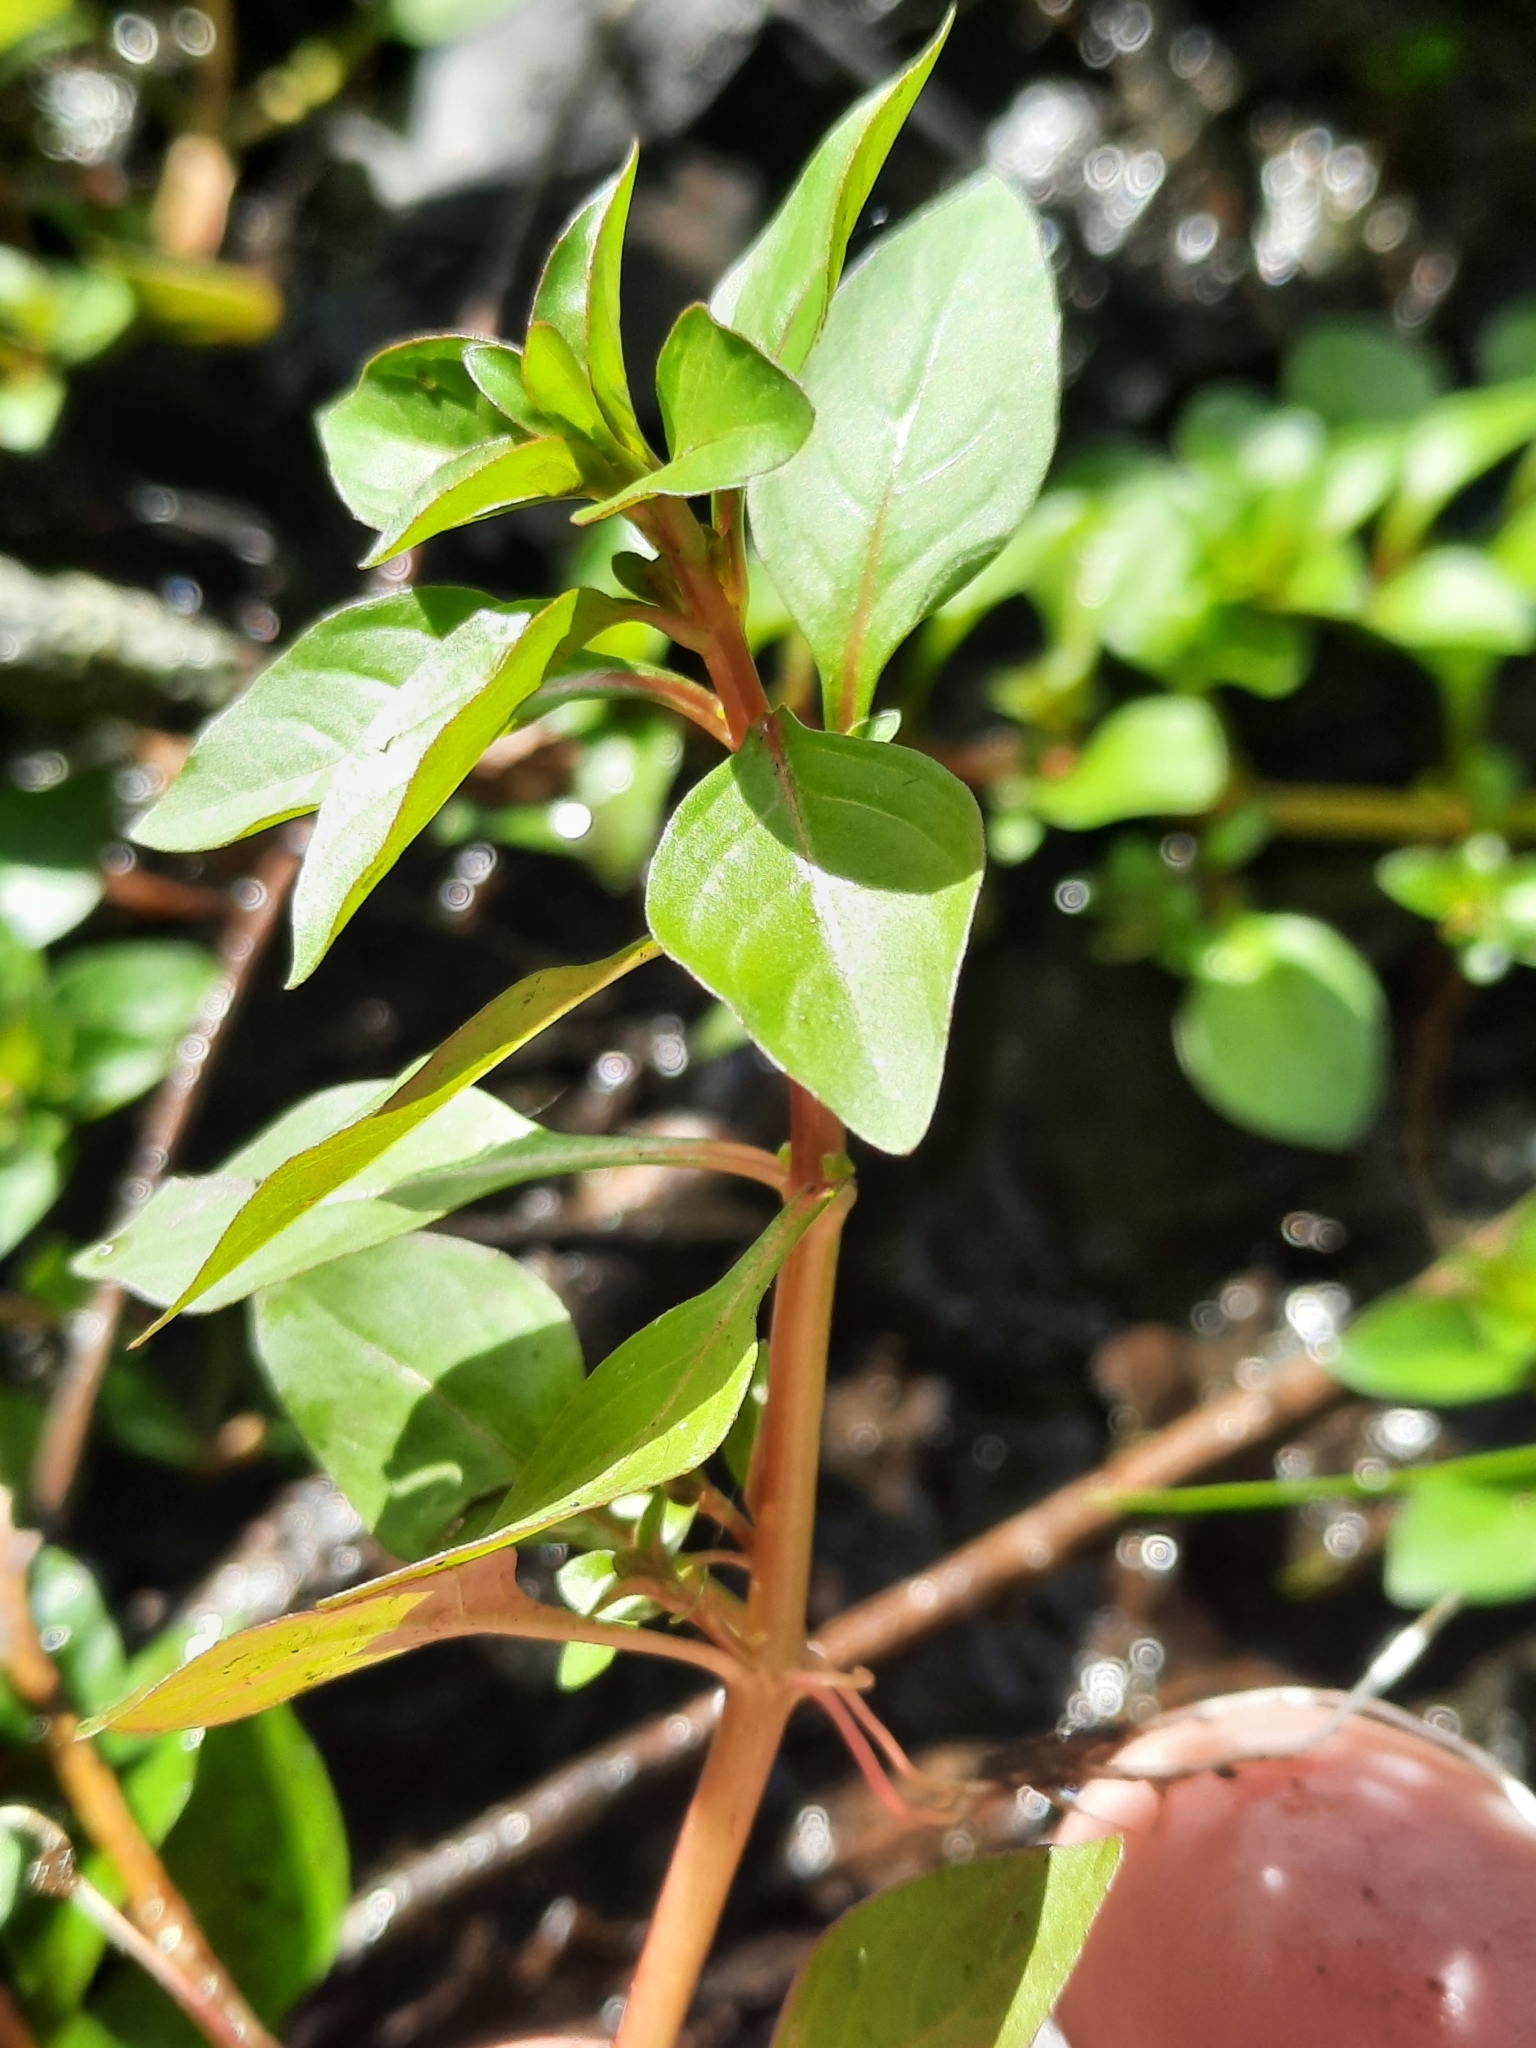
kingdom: Plantae
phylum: Tracheophyta
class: Magnoliopsida
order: Myrtales
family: Onagraceae
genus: Ludwigia
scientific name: Ludwigia palustris
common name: Hampshire-purslane
